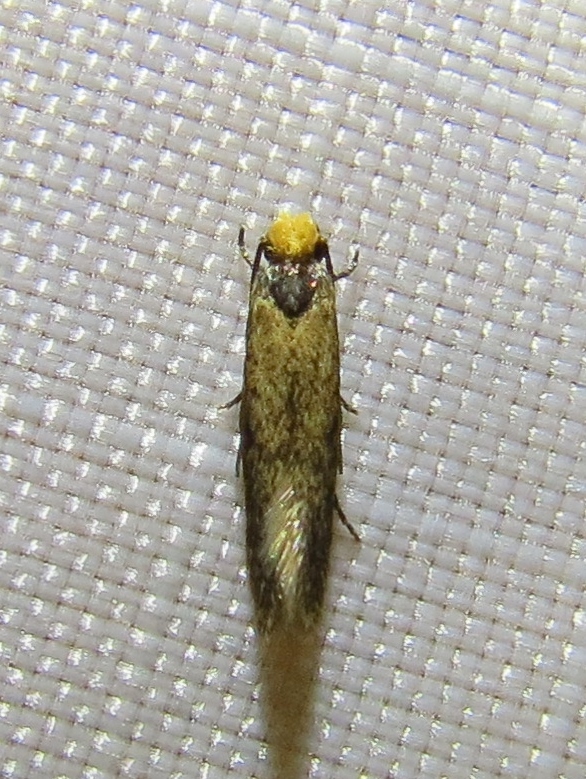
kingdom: Animalia
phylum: Arthropoda
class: Insecta
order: Lepidoptera
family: Tineidae
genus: Tinea
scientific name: Tinea apicimaculella
